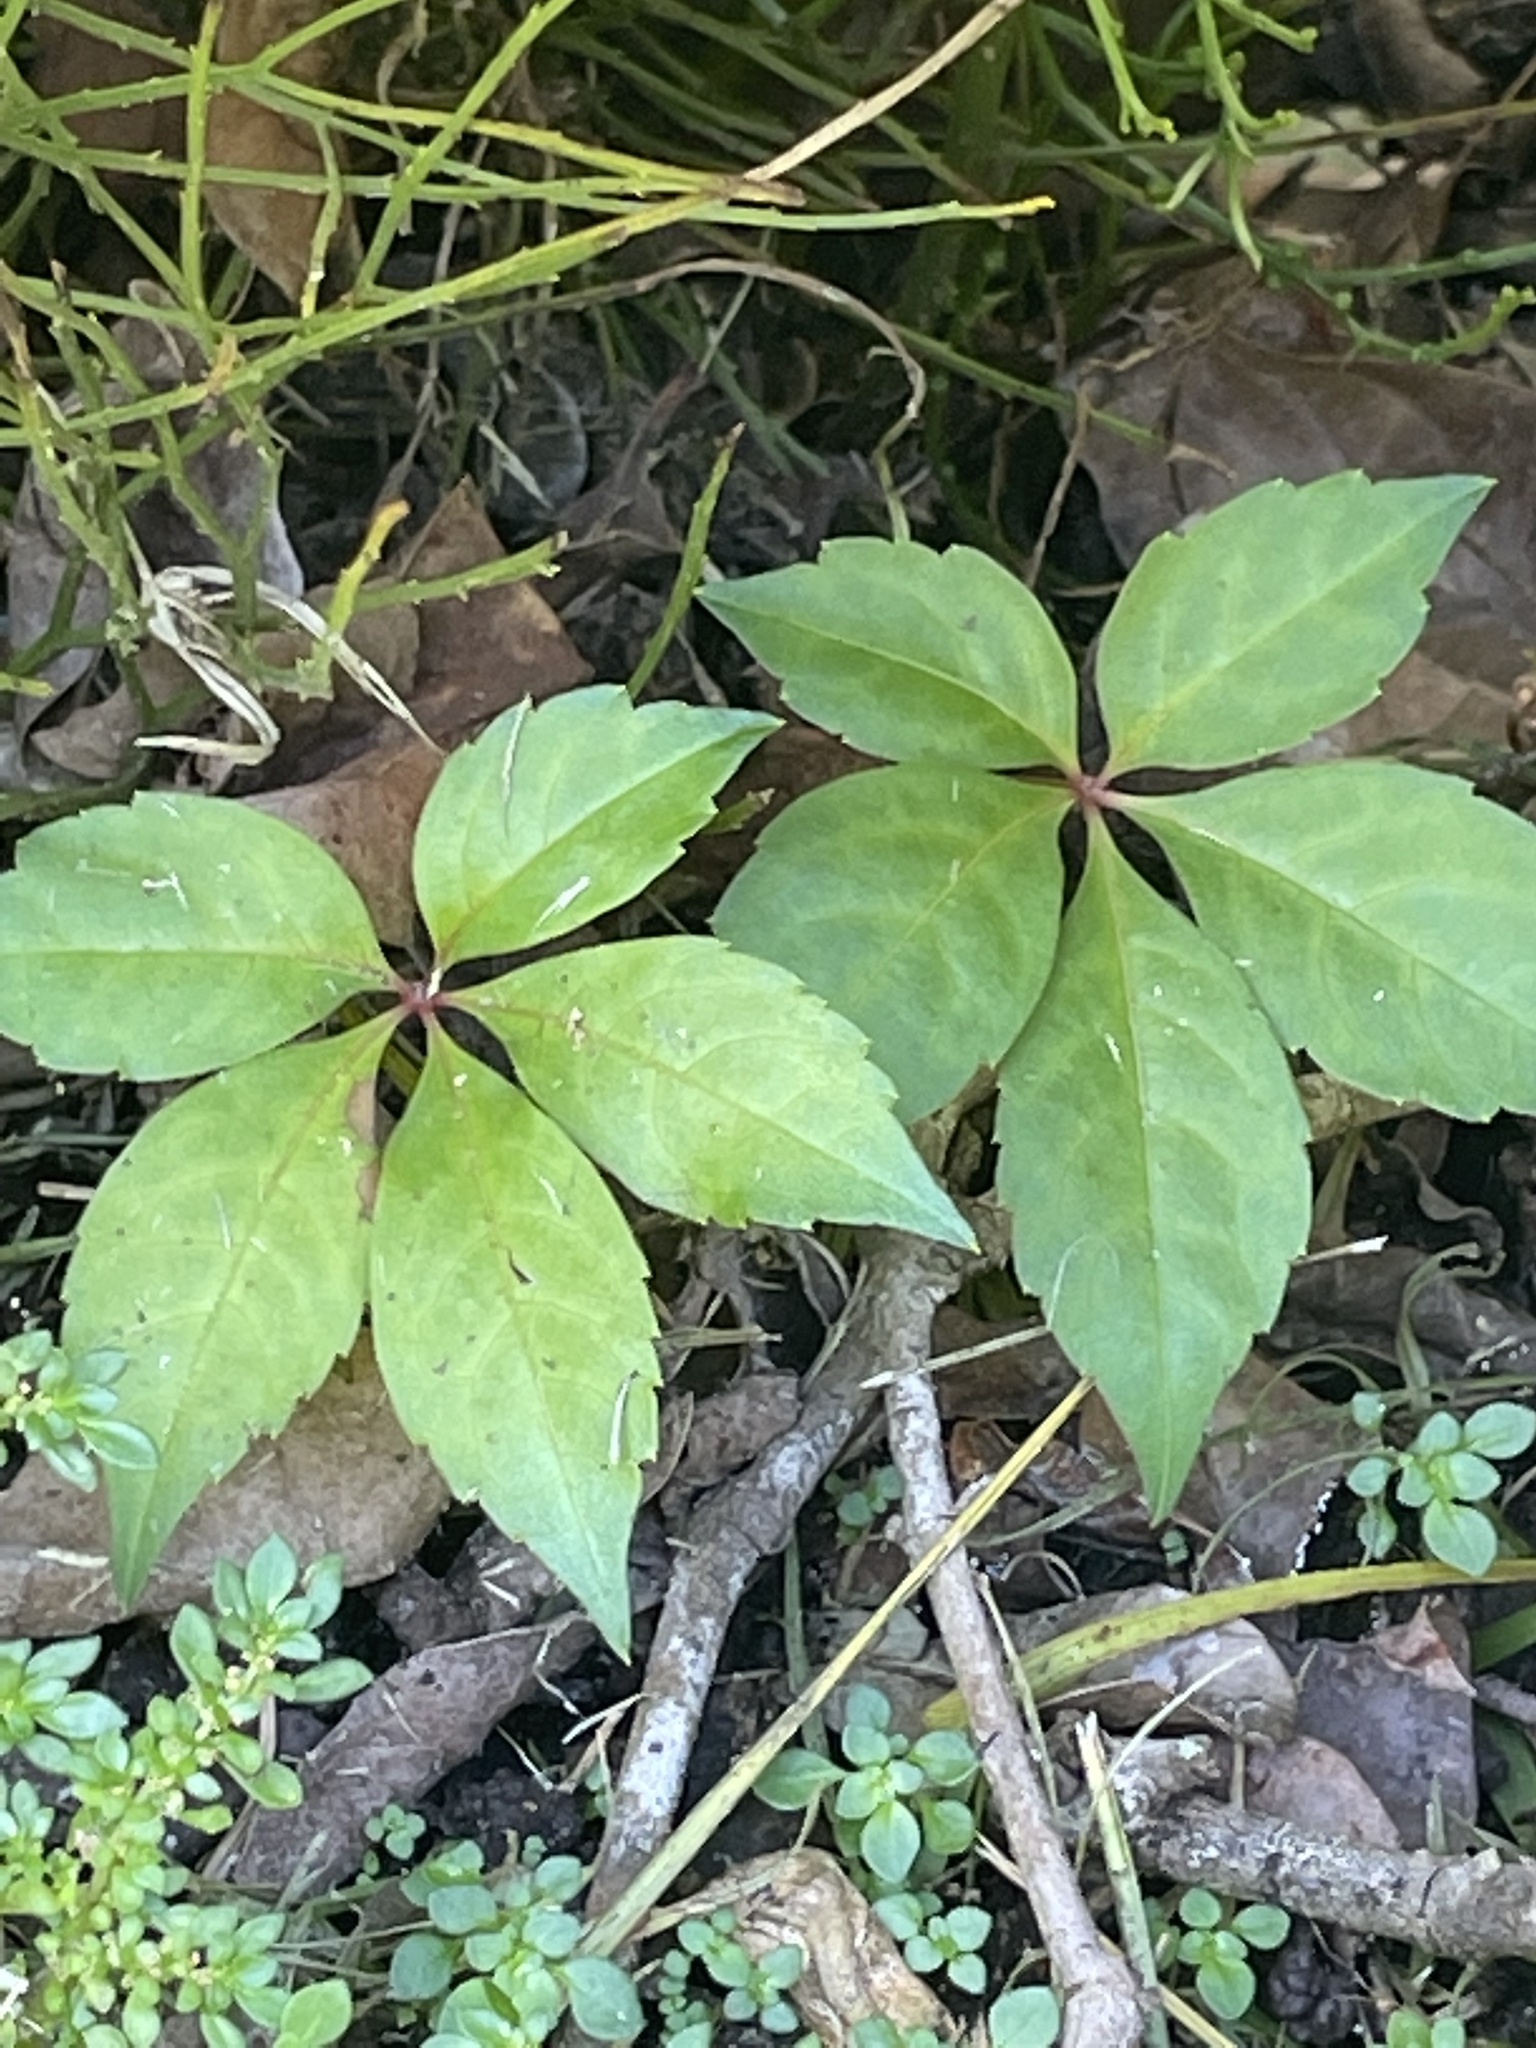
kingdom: Plantae
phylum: Tracheophyta
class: Magnoliopsida
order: Vitales
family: Vitaceae
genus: Parthenocissus
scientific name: Parthenocissus quinquefolia
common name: Virginia-creeper
